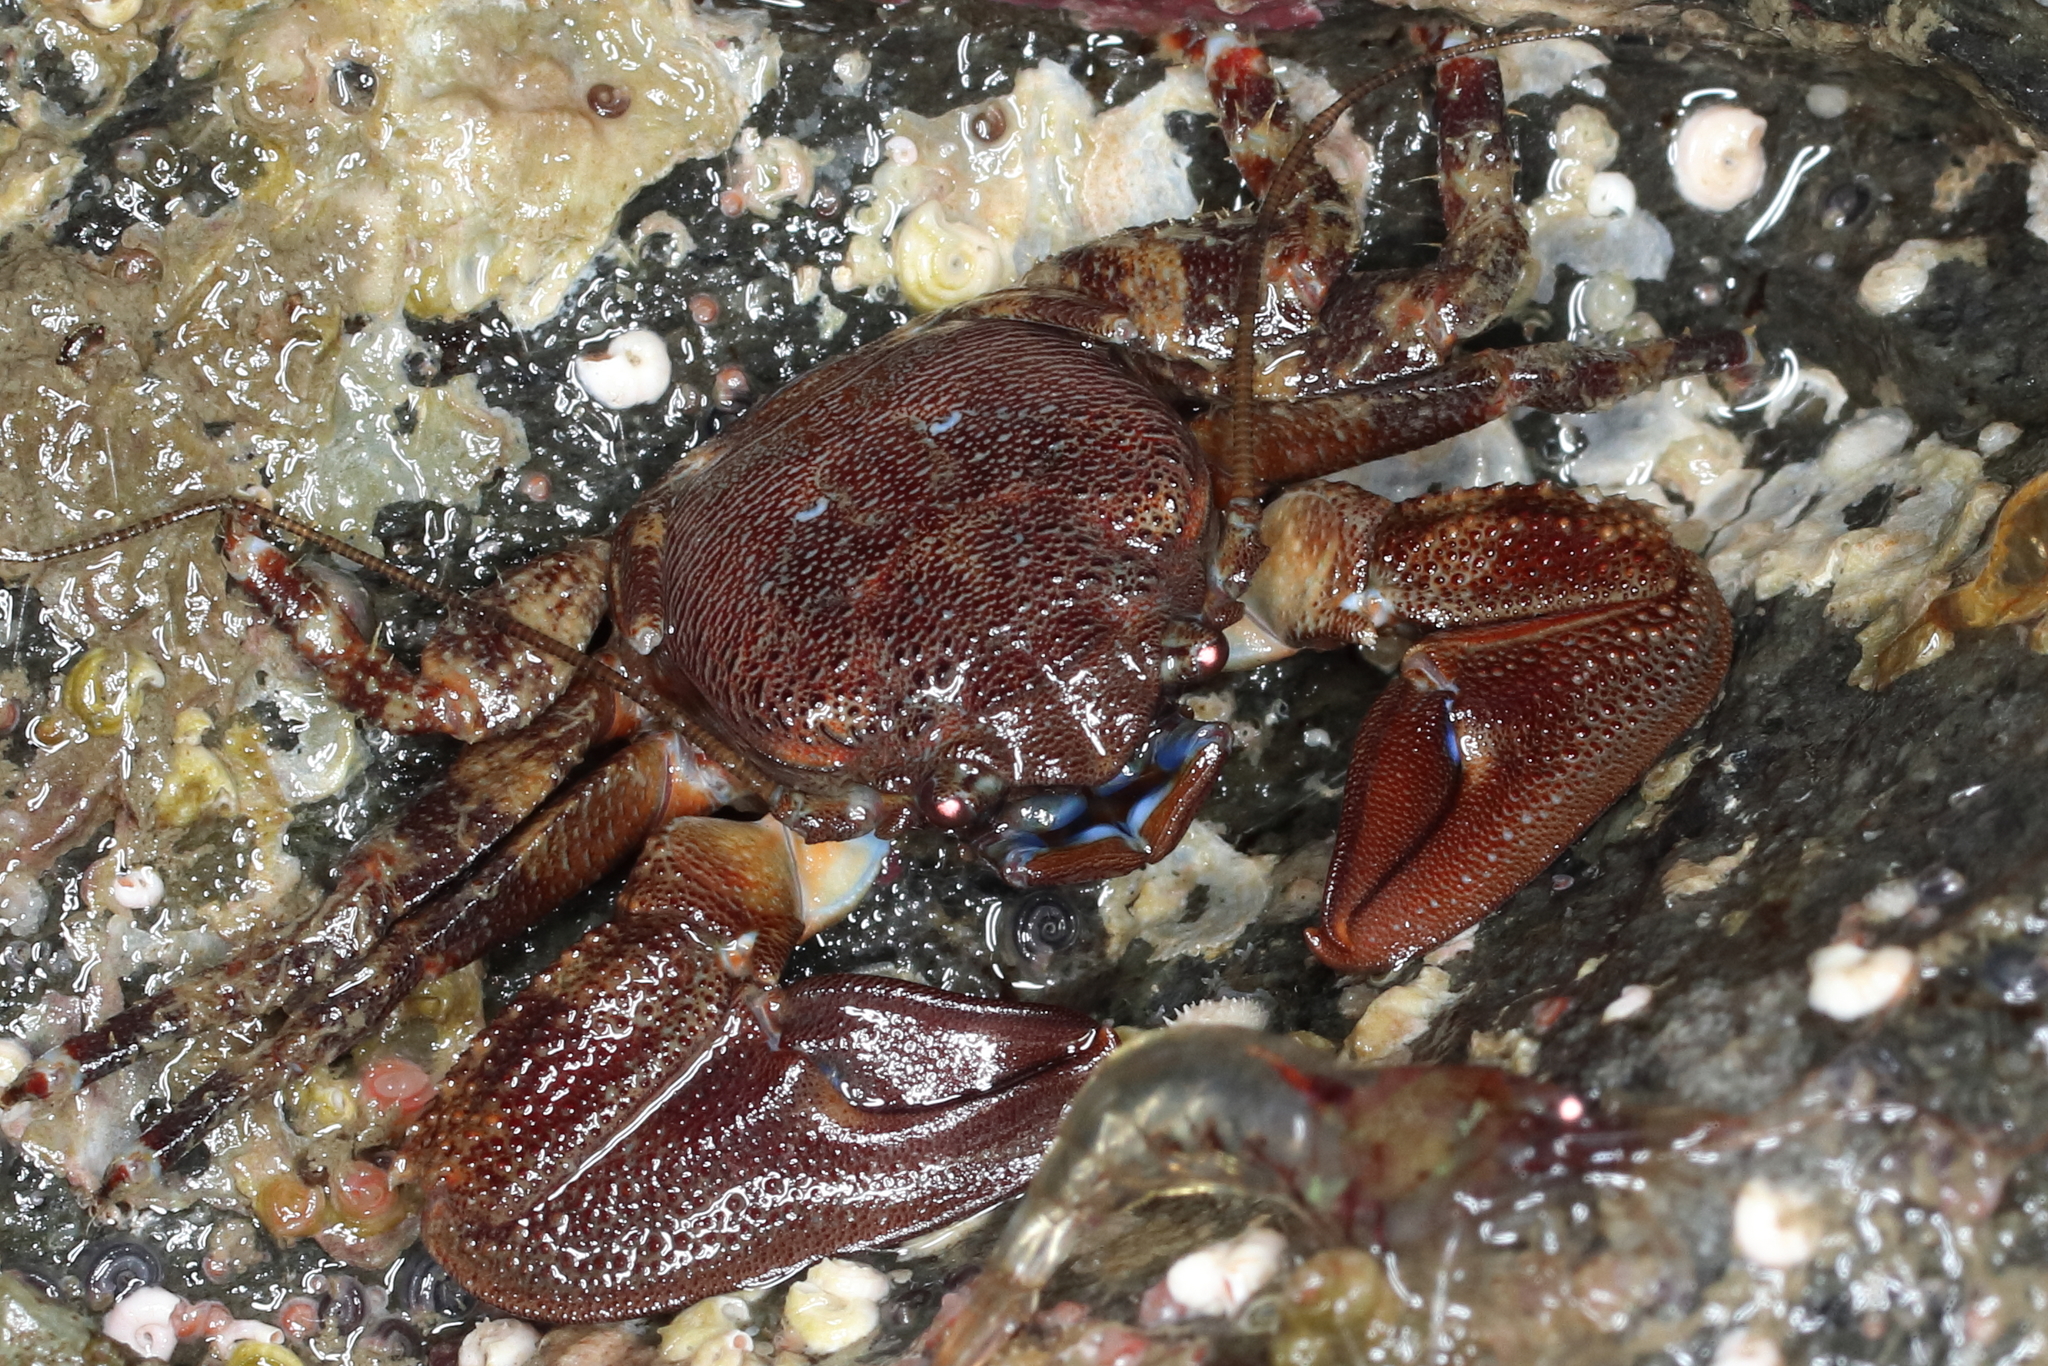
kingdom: Animalia
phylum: Arthropoda
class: Malacostraca
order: Decapoda
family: Porcellanidae
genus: Petrolisthes
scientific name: Petrolisthes eriomerus
